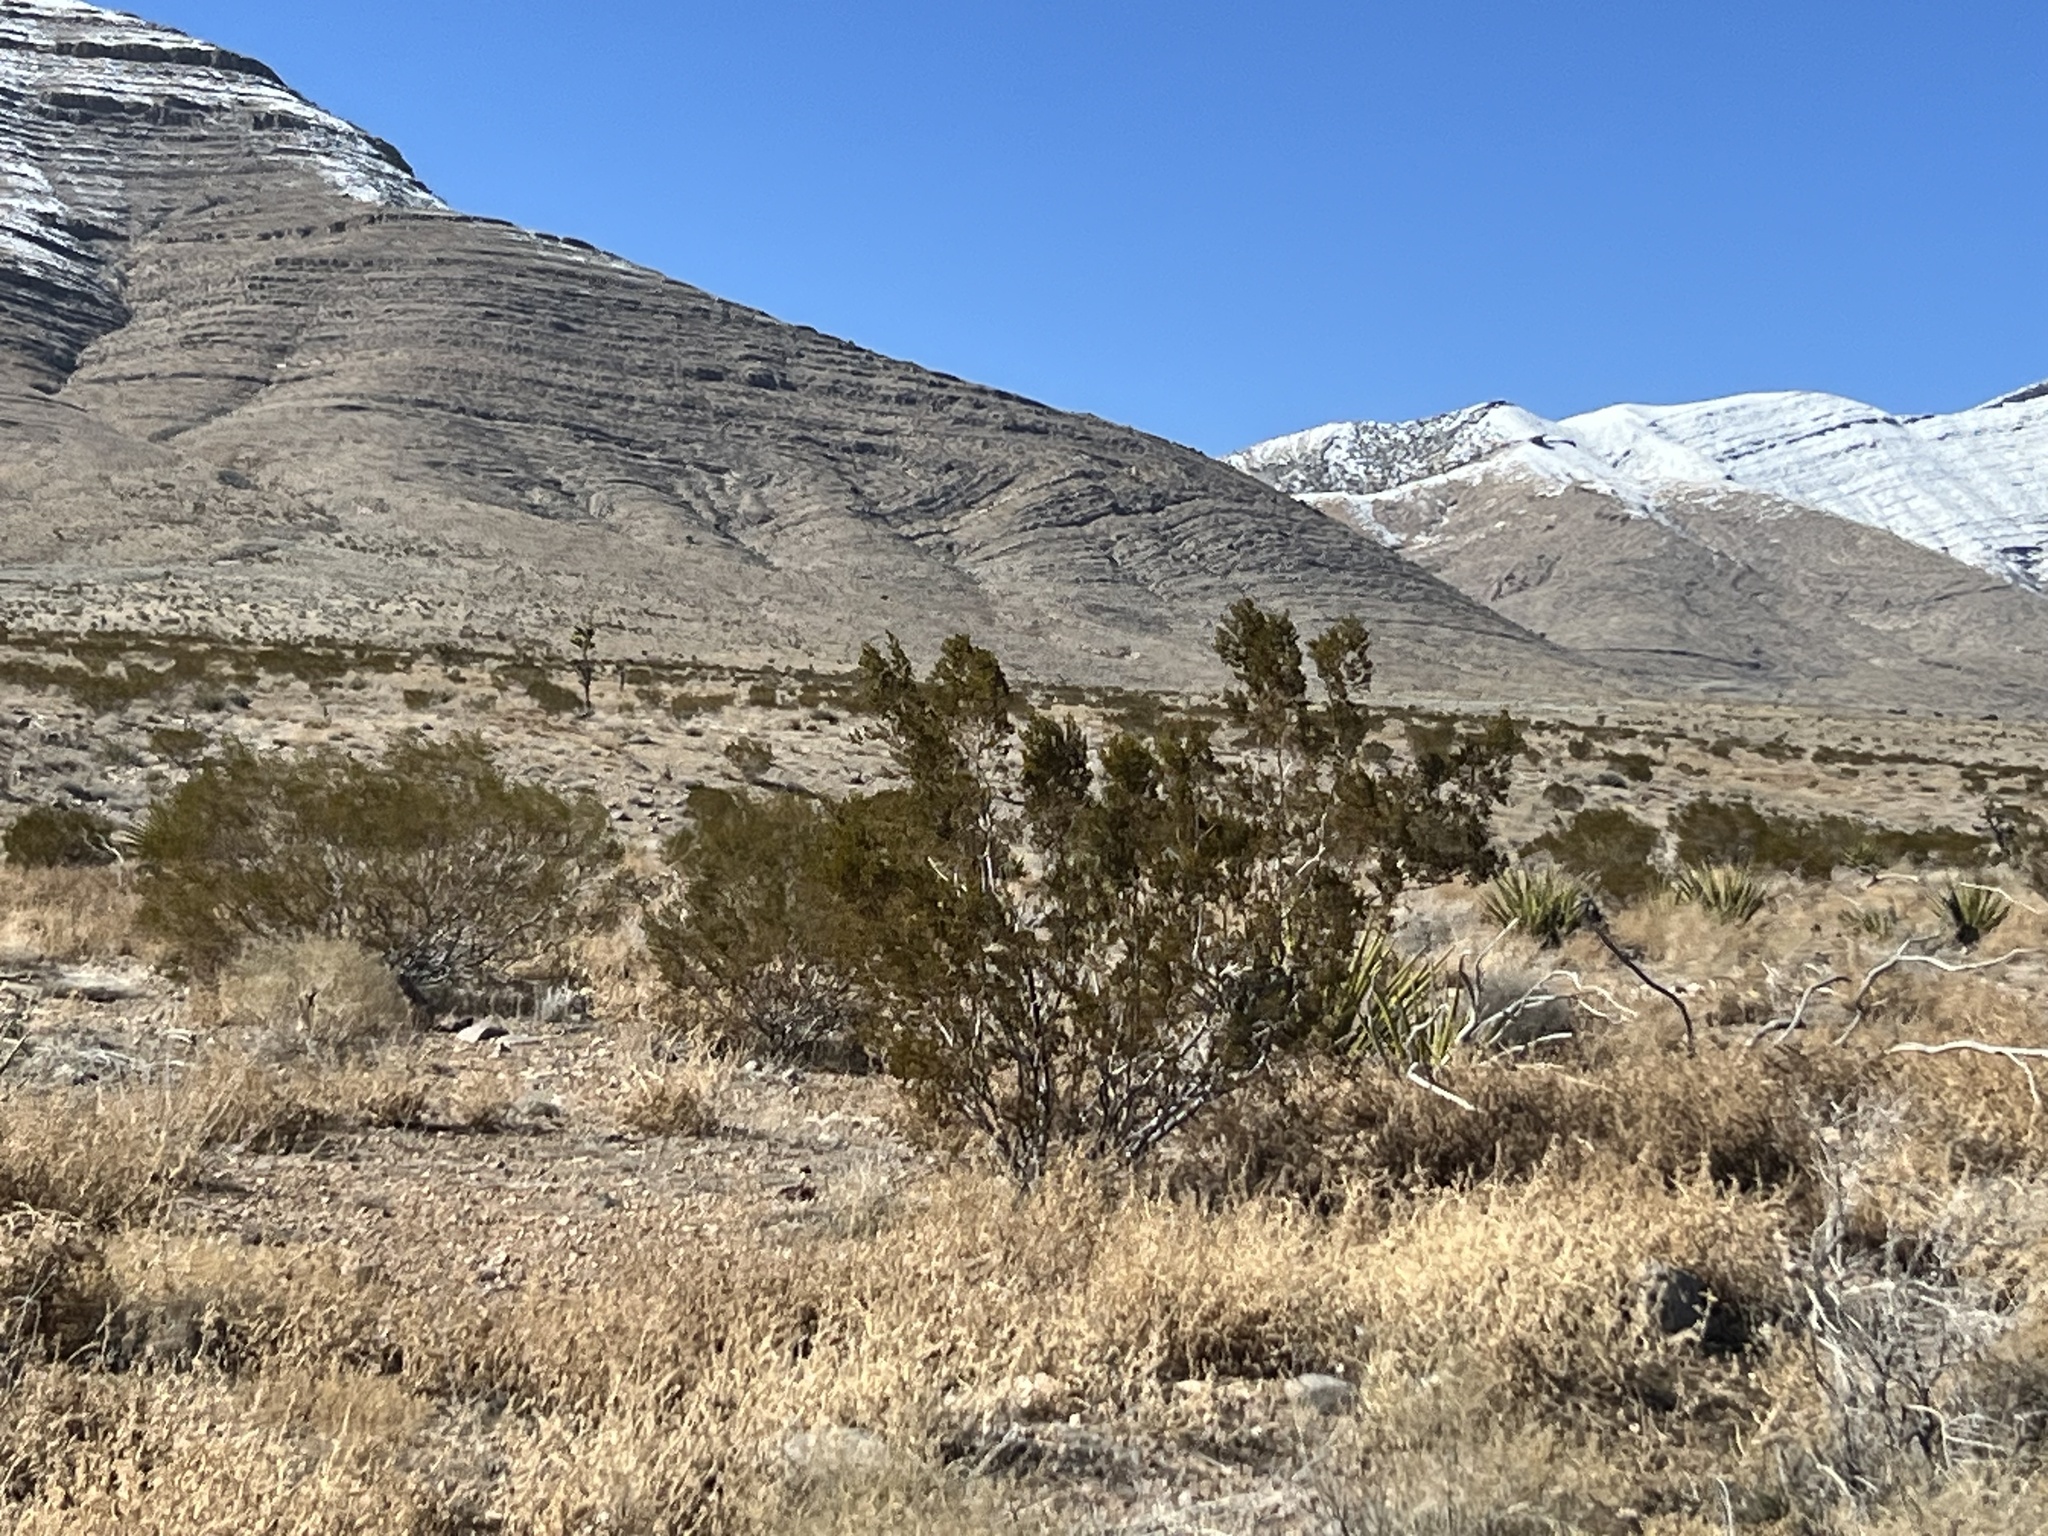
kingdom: Plantae
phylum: Tracheophyta
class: Magnoliopsida
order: Zygophyllales
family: Zygophyllaceae
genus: Larrea
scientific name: Larrea tridentata
